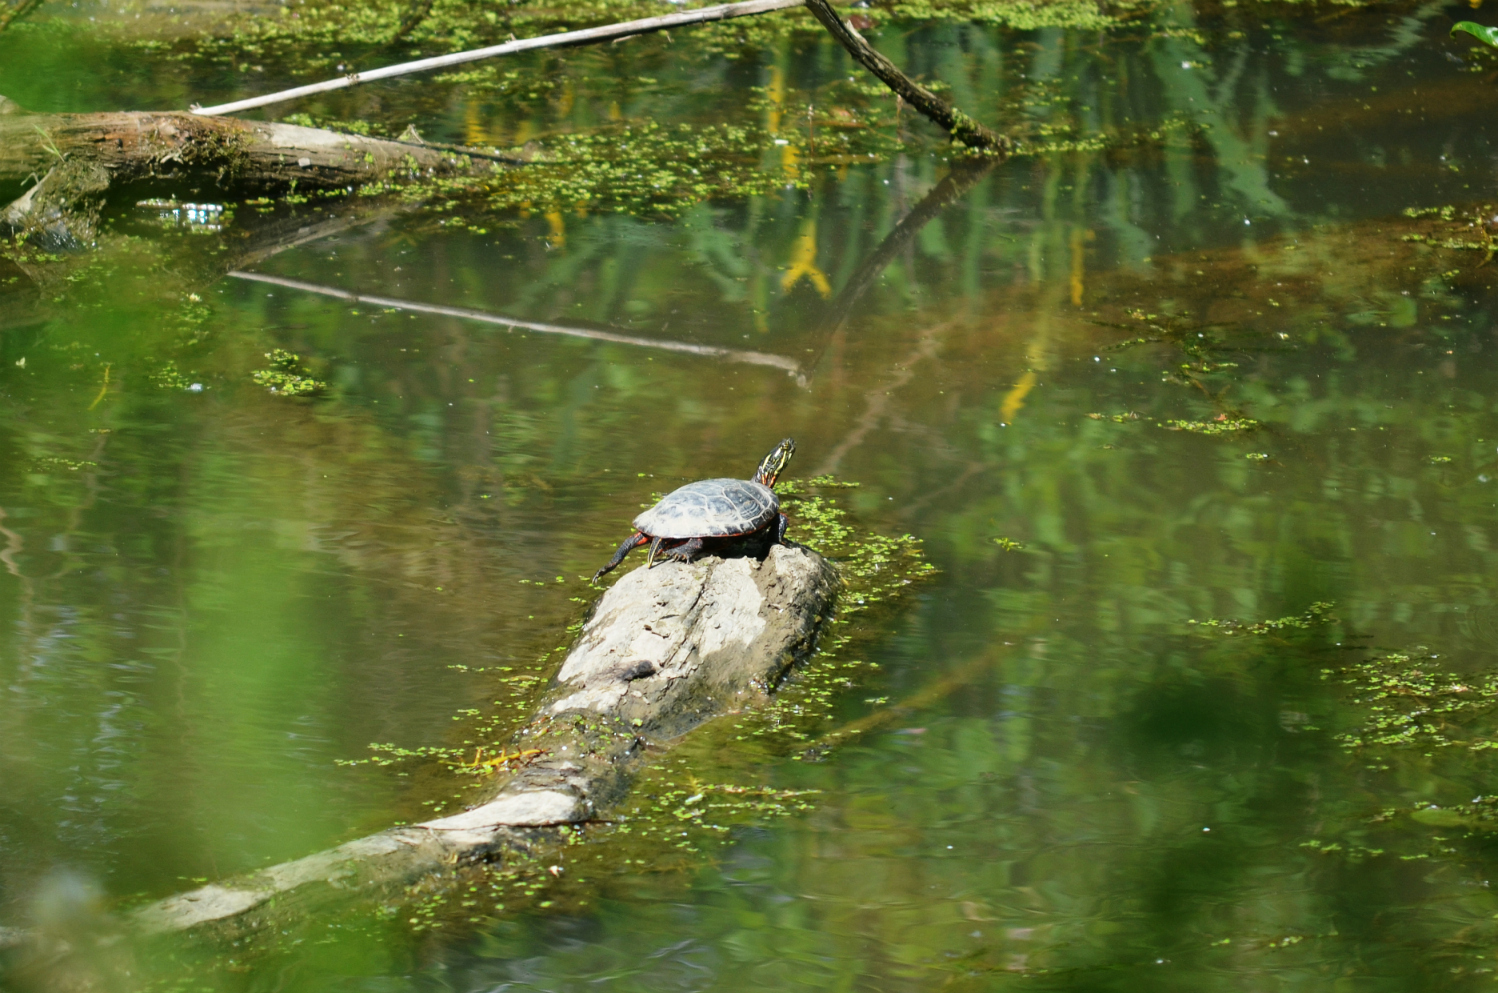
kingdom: Animalia
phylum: Chordata
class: Testudines
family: Emydidae
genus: Chrysemys
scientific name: Chrysemys picta
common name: Painted turtle
